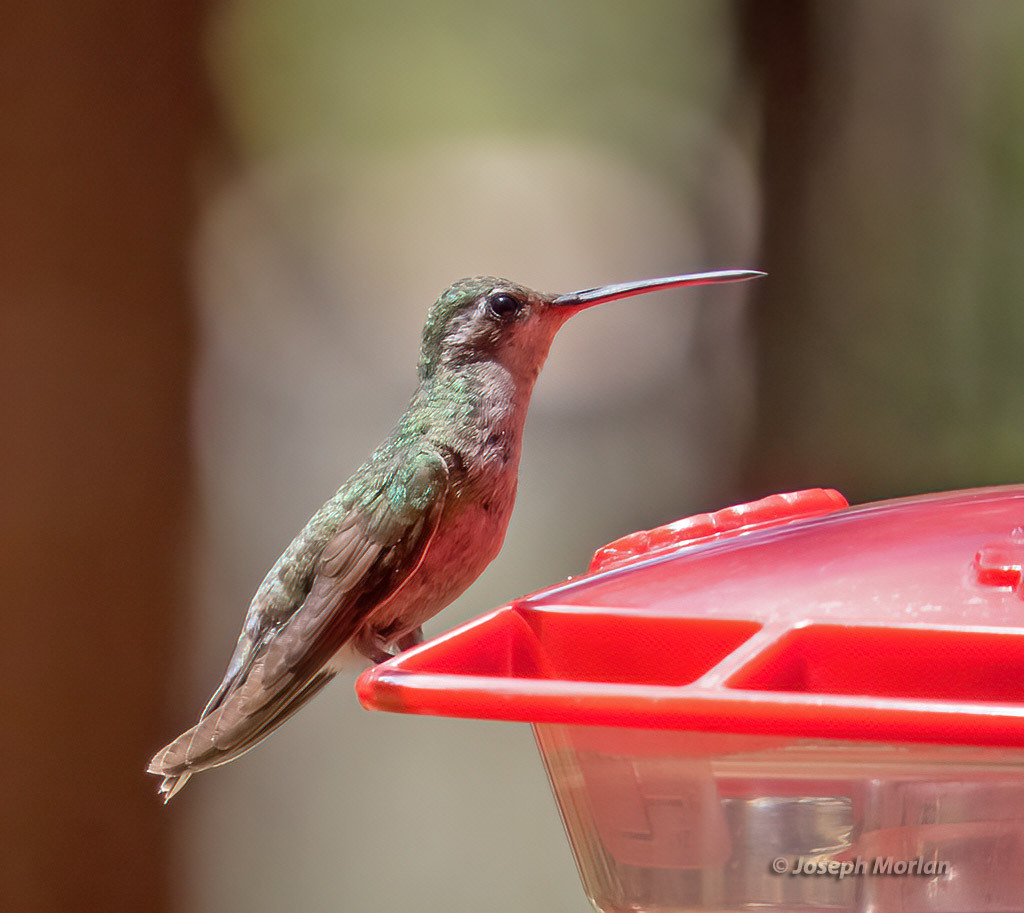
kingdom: Animalia
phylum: Chordata
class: Aves
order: Apodiformes
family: Trochilidae
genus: Cynanthus
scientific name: Cynanthus latirostris
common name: Broad-billed hummingbird
